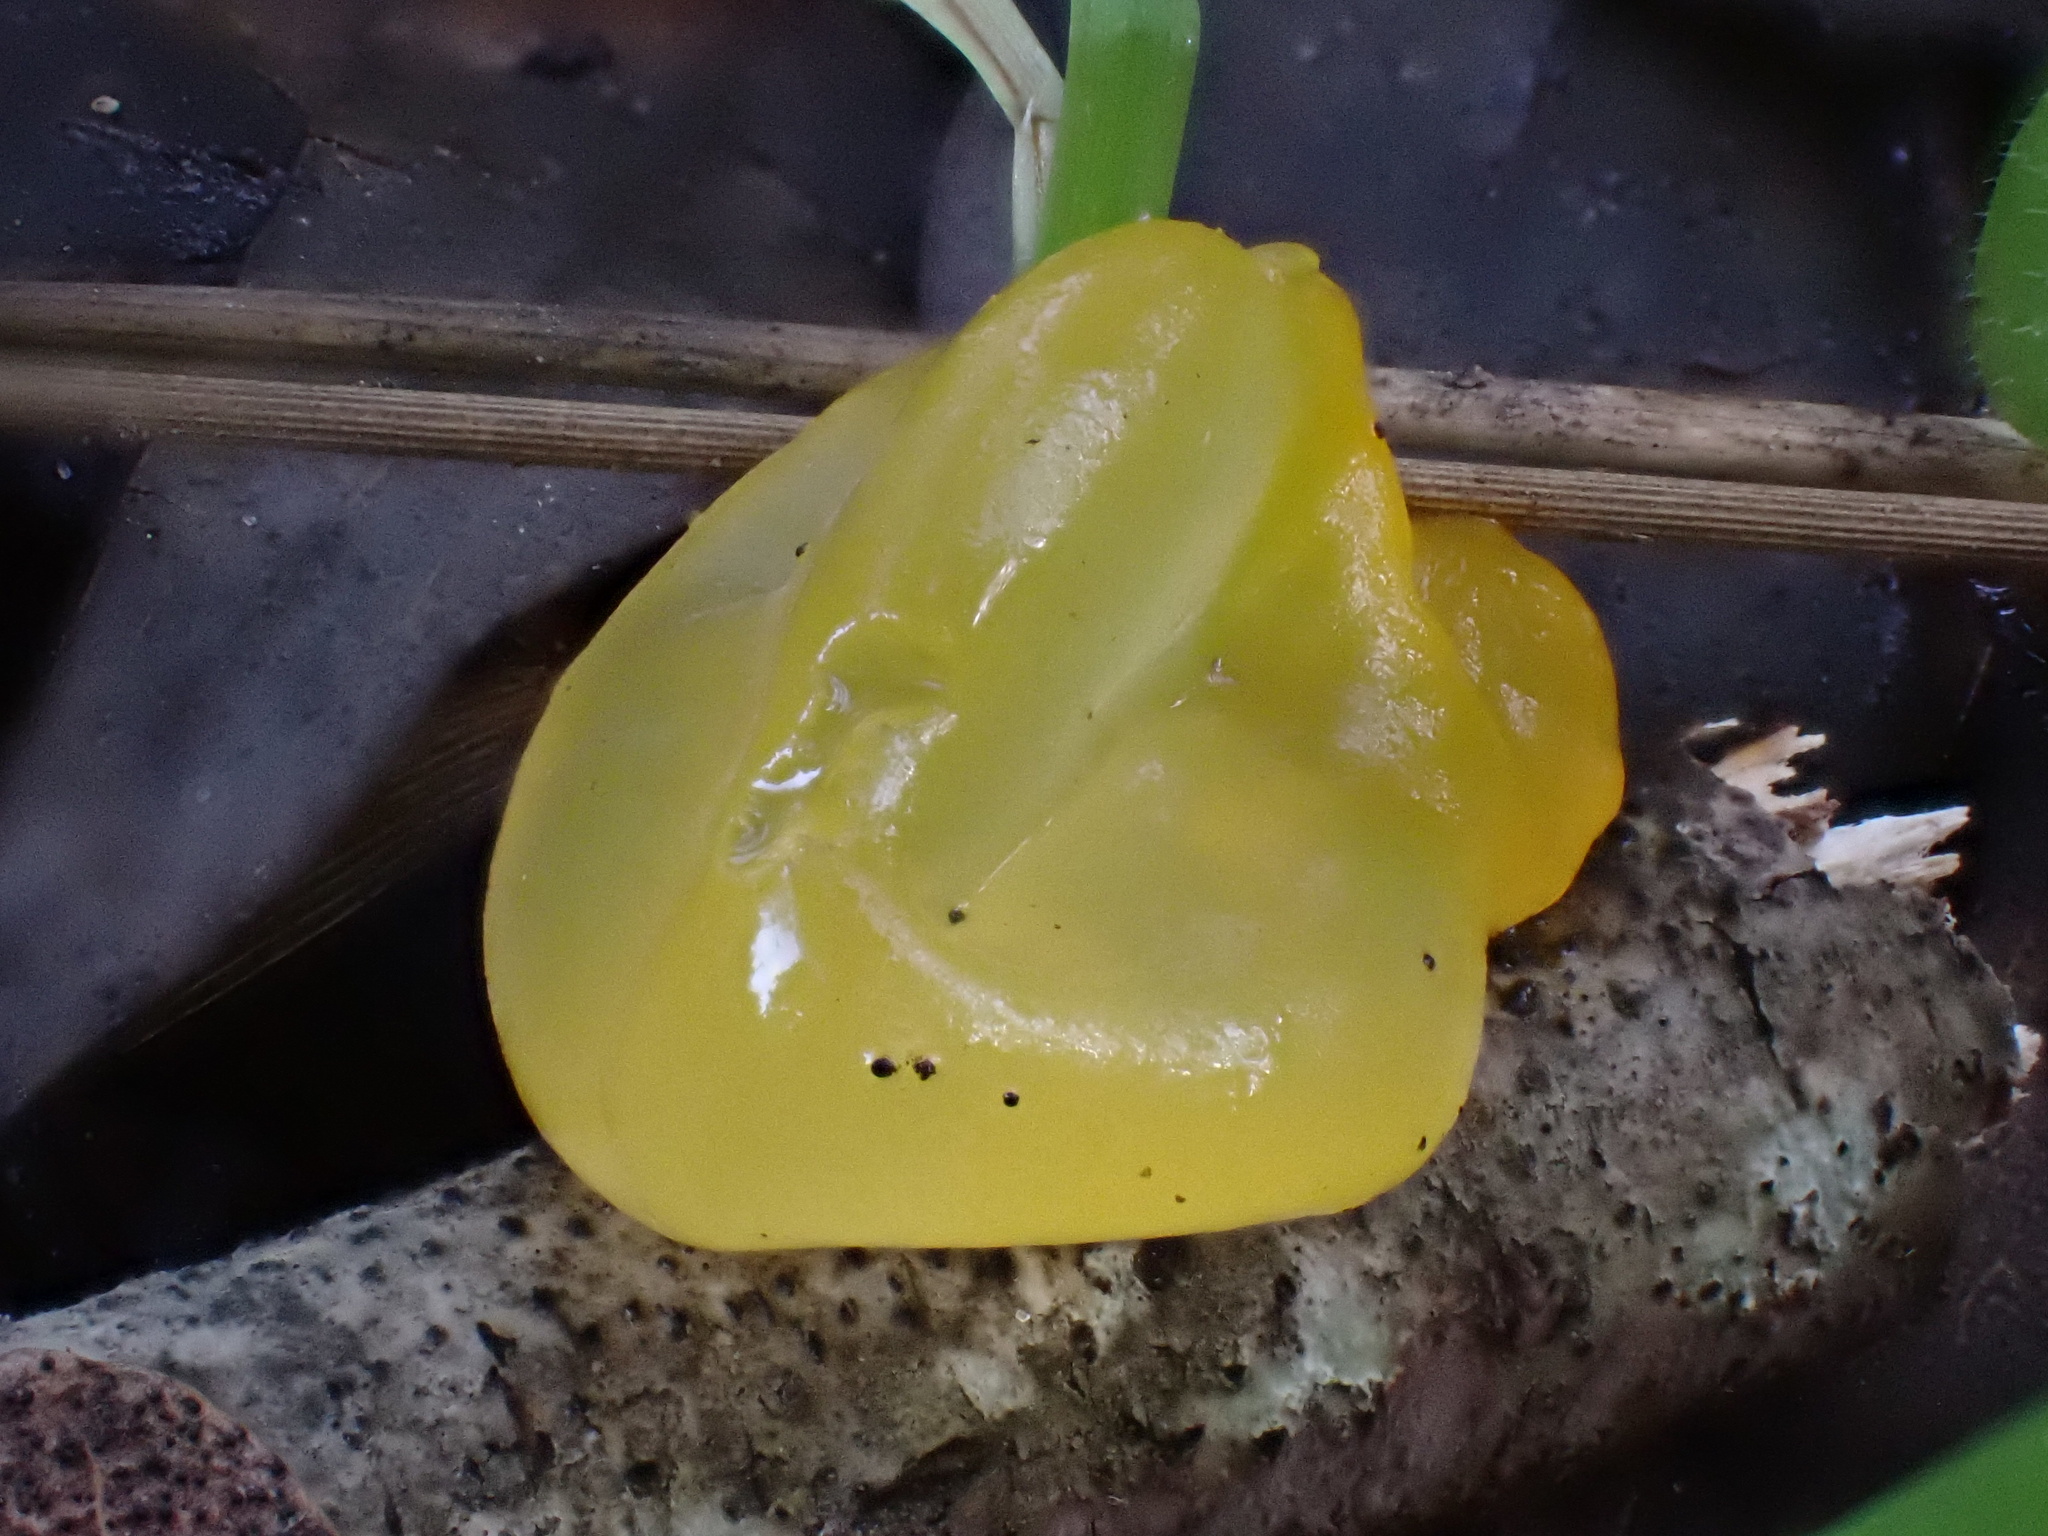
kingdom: Fungi
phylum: Basidiomycota
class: Tremellomycetes
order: Tremellales
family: Tremellaceae
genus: Tremella
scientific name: Tremella mesenterica
